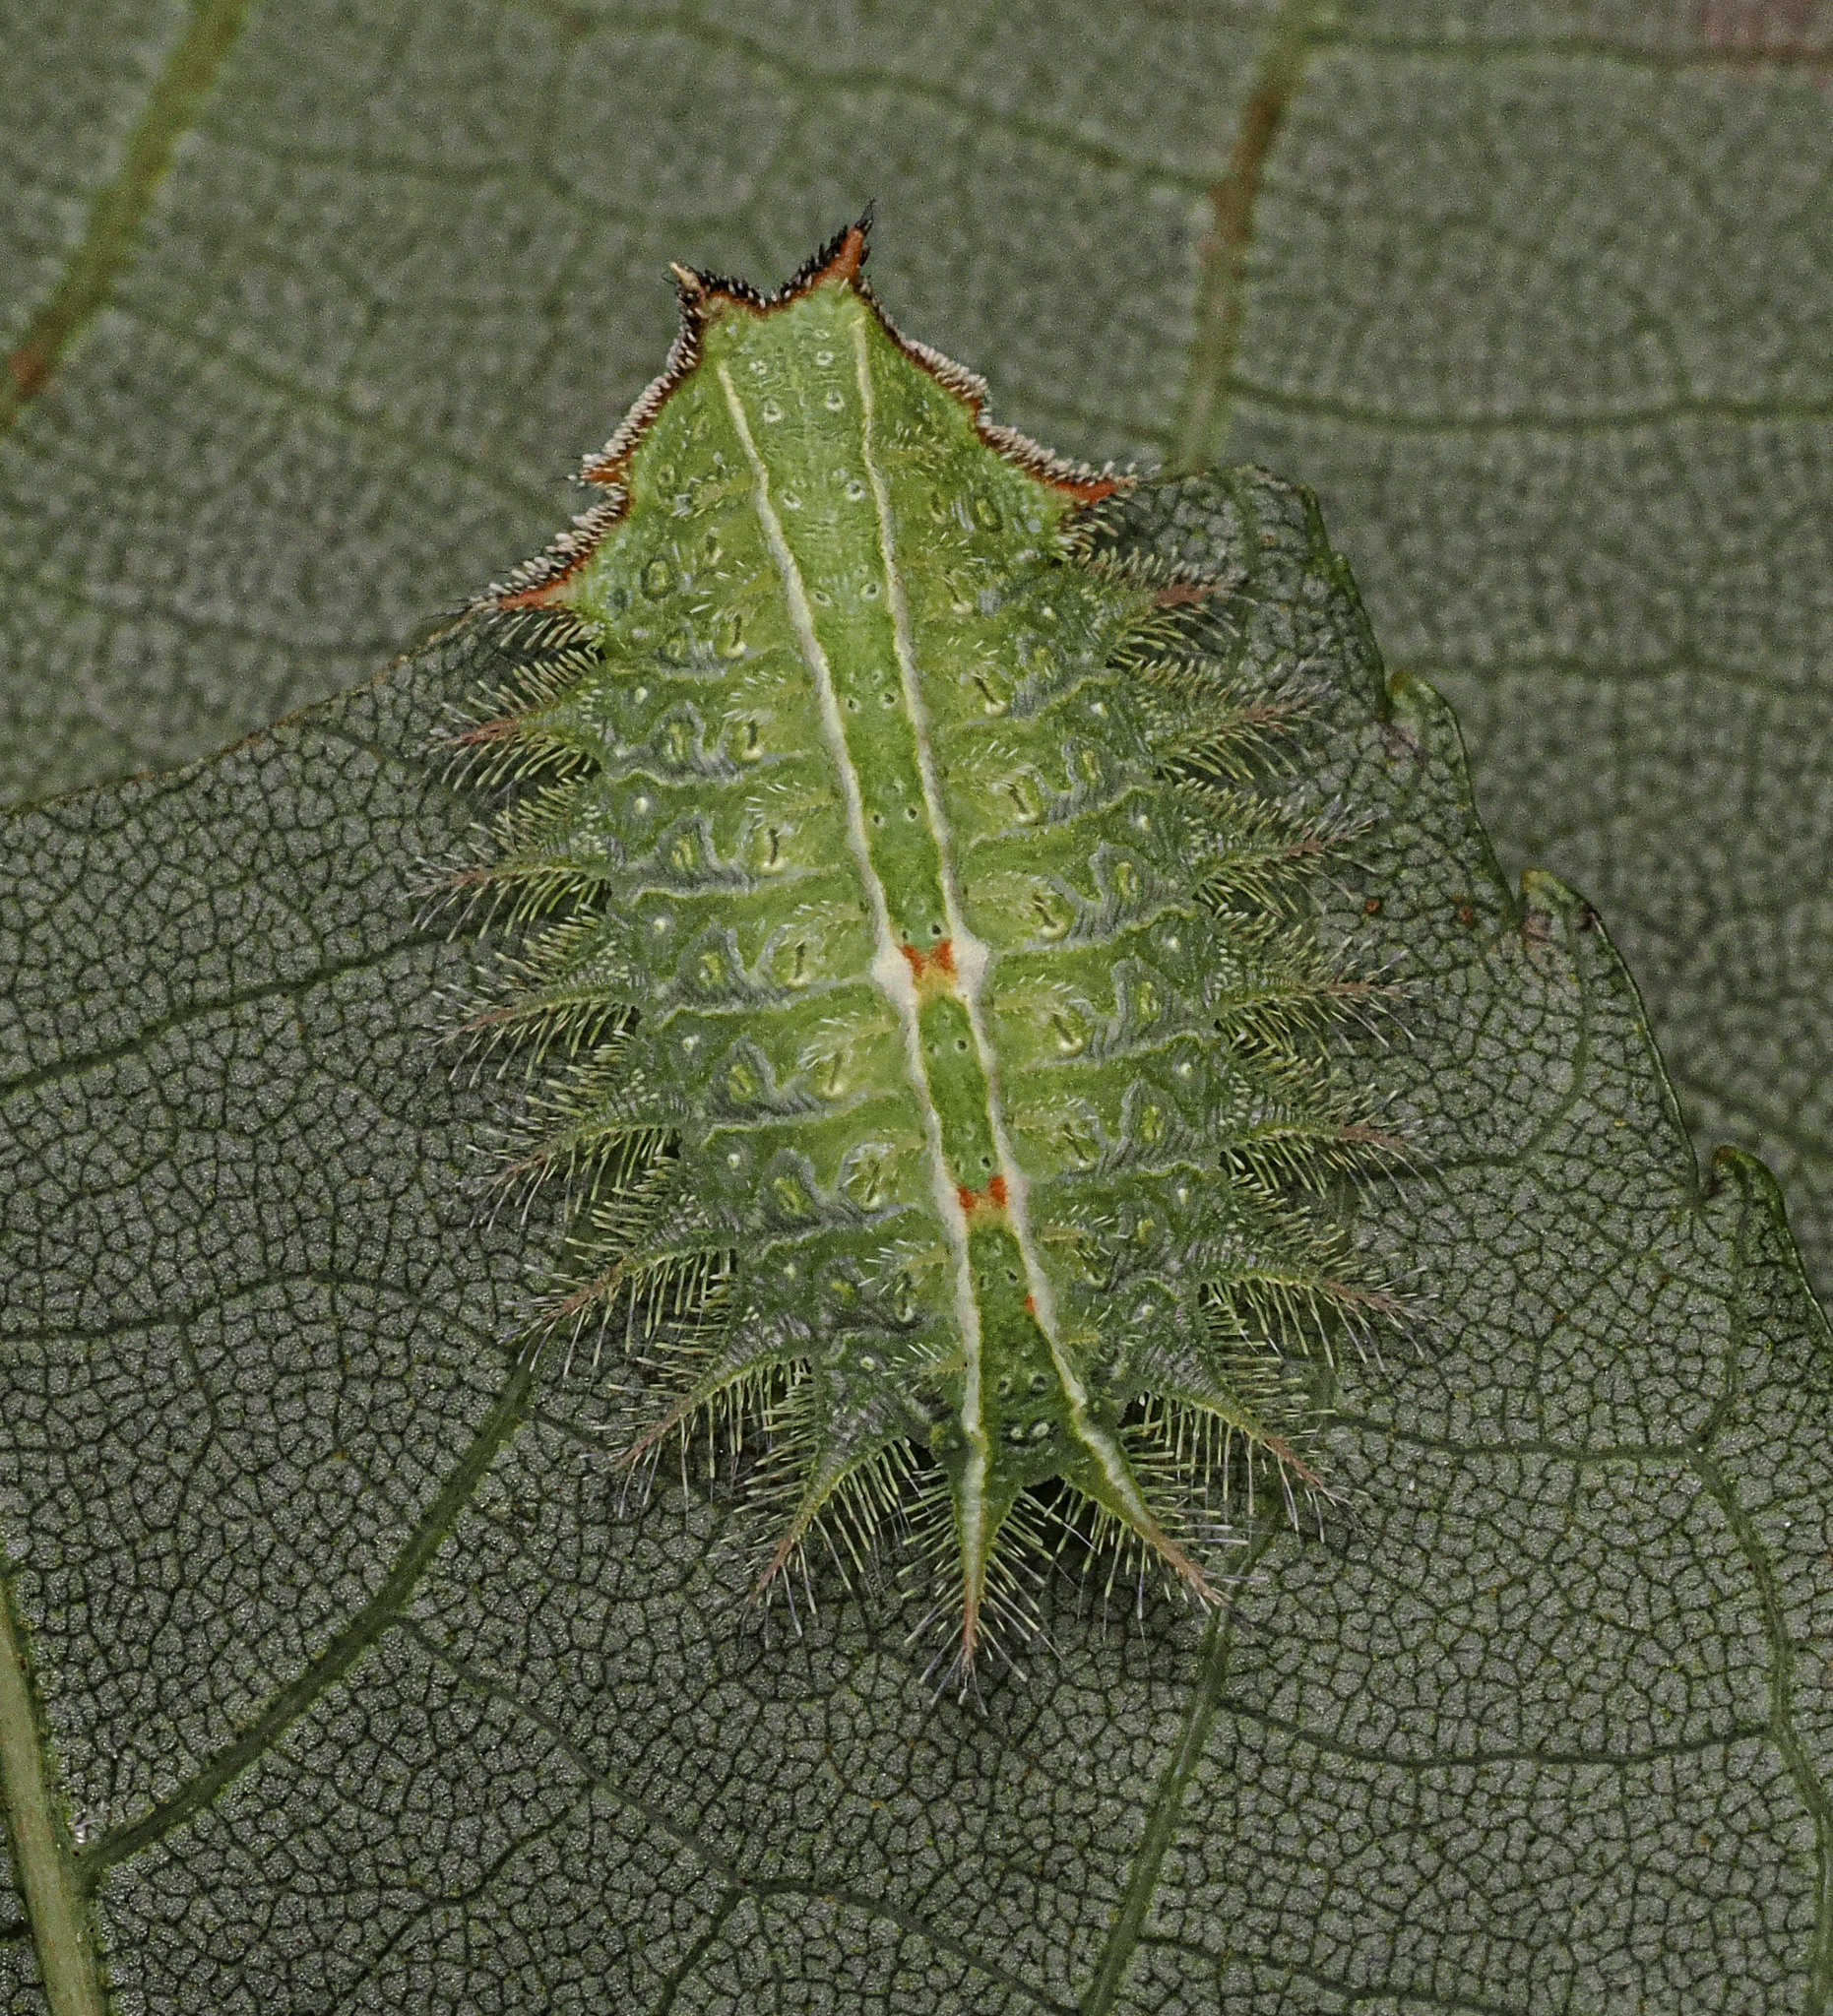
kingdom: Animalia
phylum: Arthropoda
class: Insecta
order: Lepidoptera
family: Limacodidae
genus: Isa
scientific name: Isa textula
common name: Crowned slug moth
